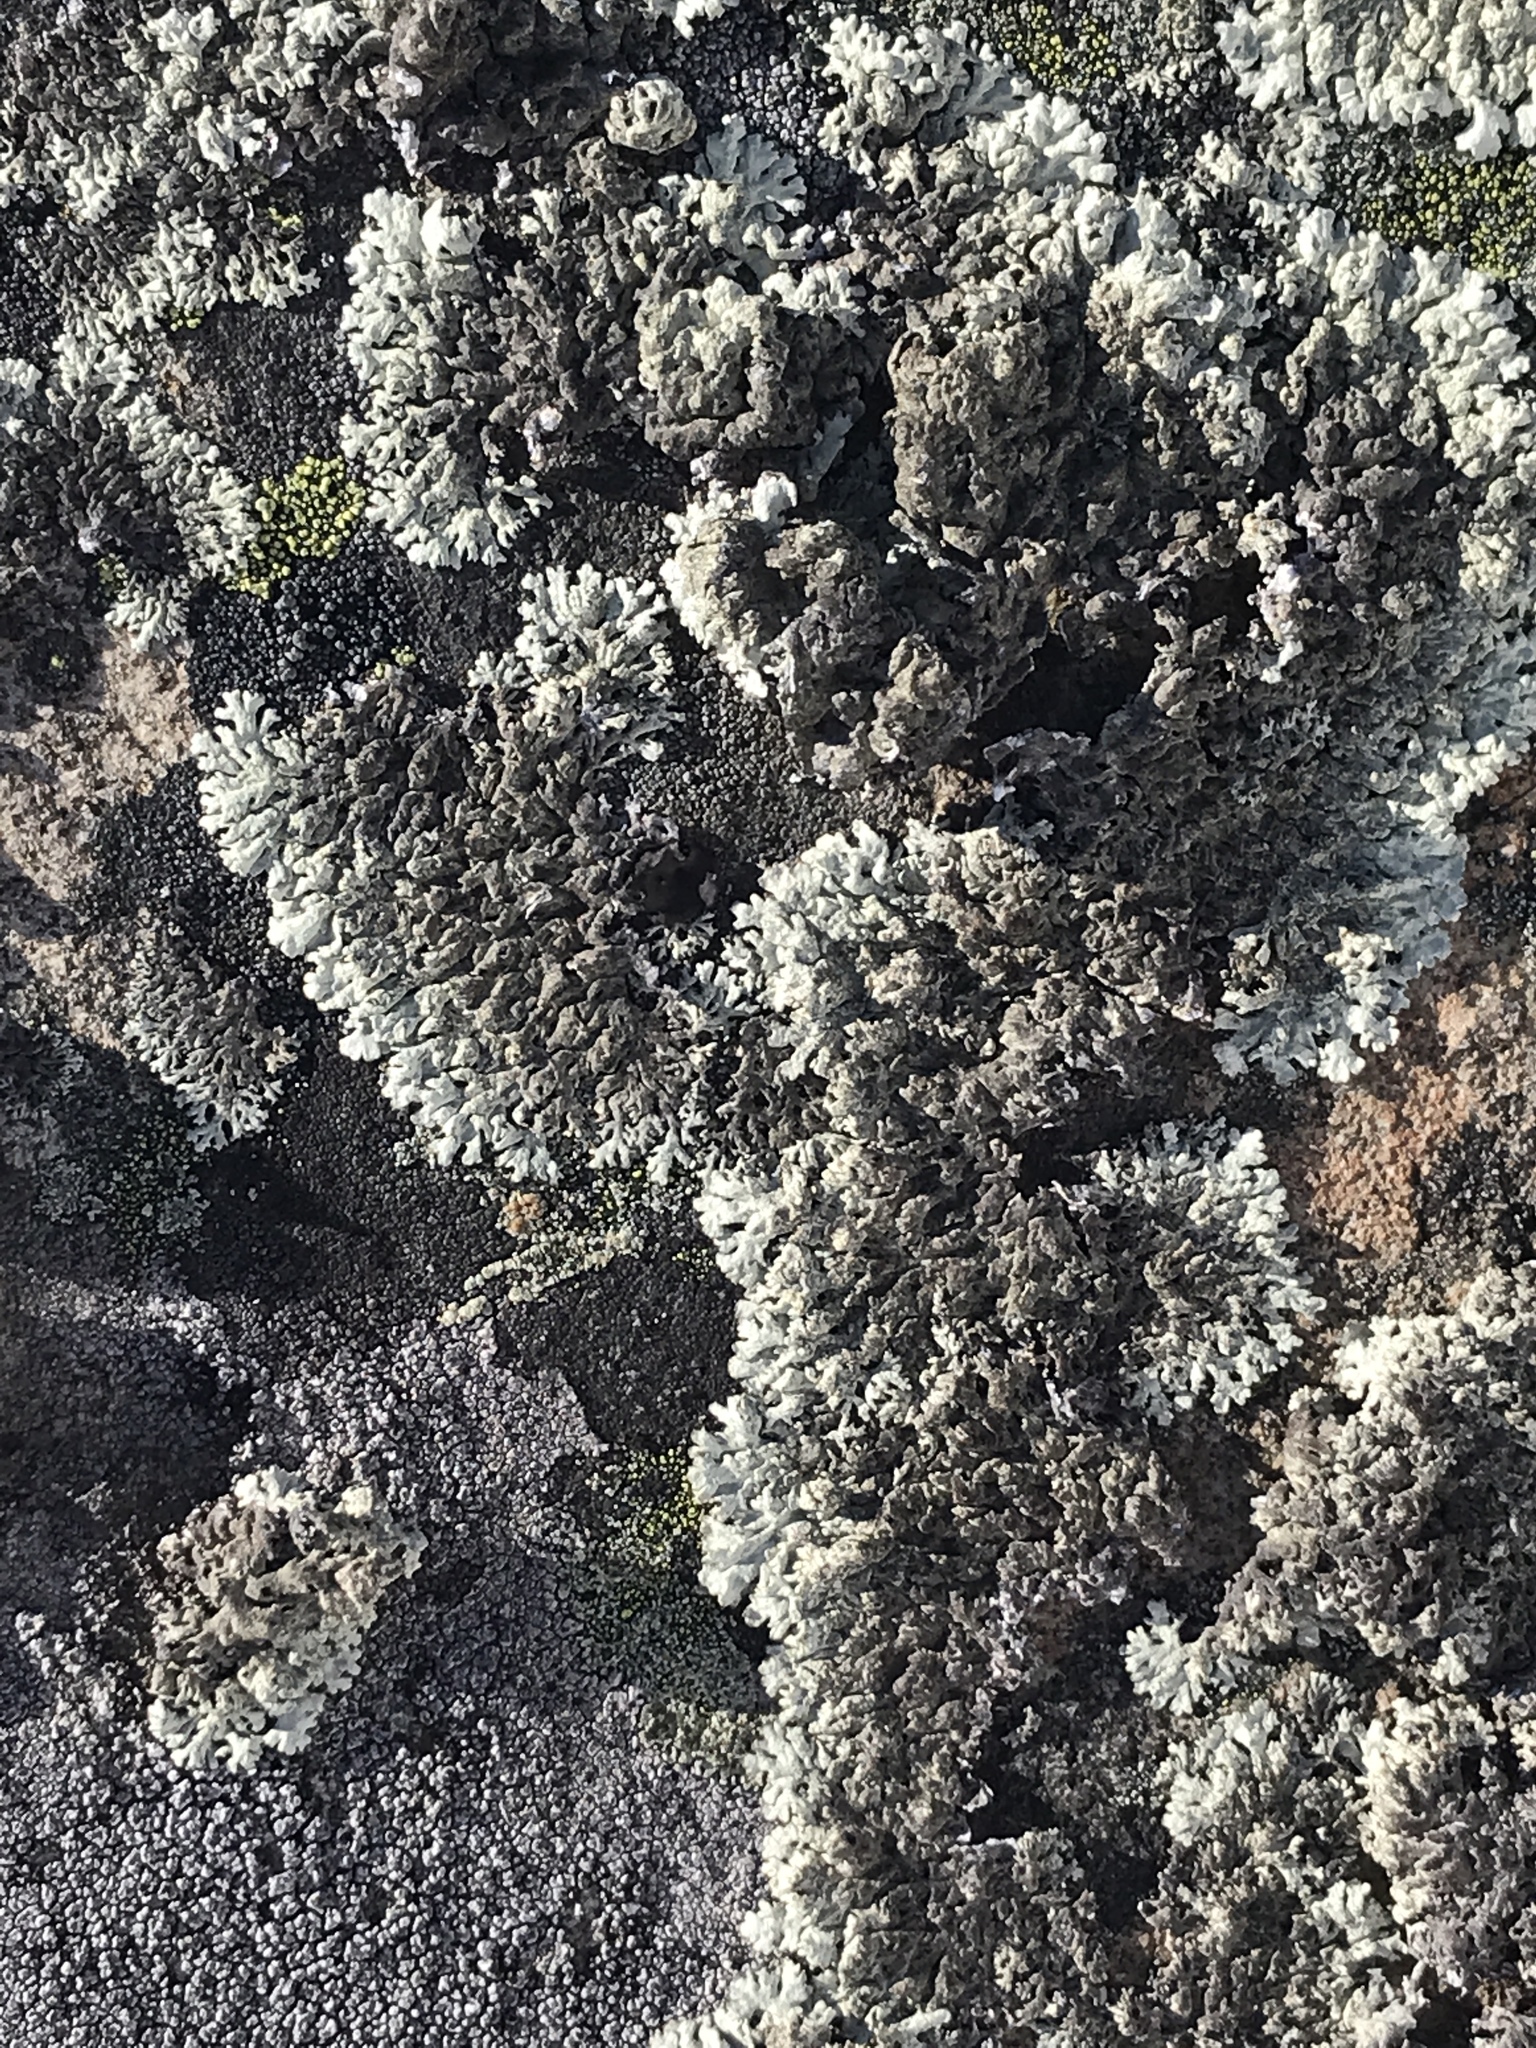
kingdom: Fungi
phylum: Ascomycota
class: Lecanoromycetes
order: Lecanorales
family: Parmeliaceae
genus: Arctoparmelia
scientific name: Arctoparmelia centrifuga
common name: Concentric ring lichen
